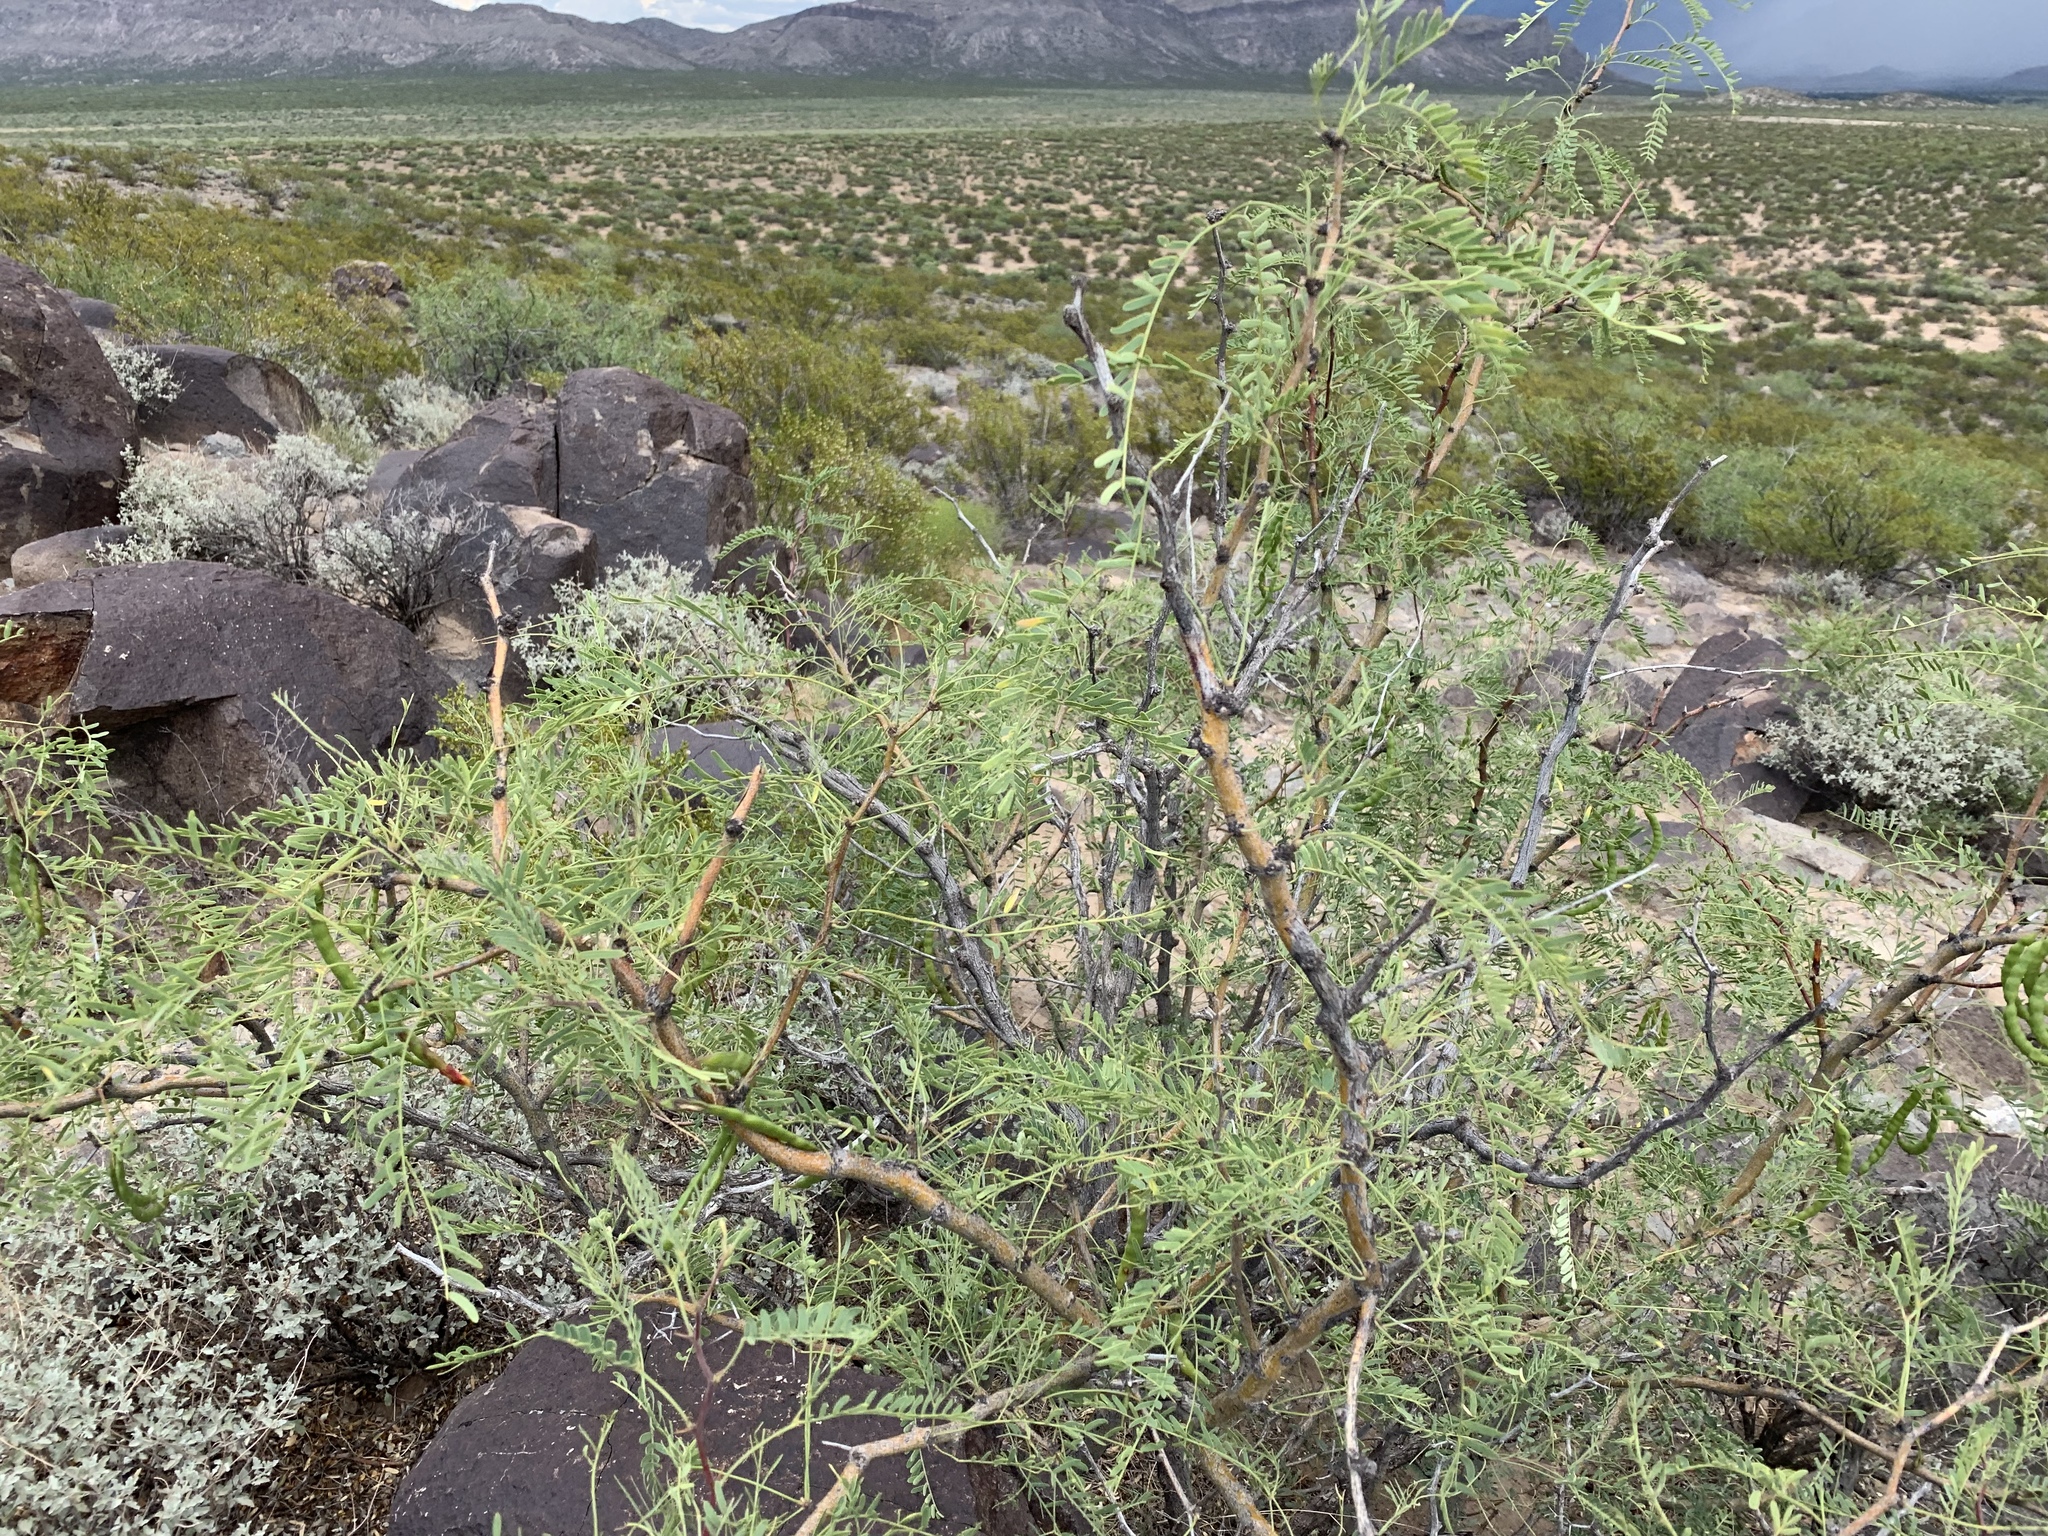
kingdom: Plantae
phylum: Tracheophyta
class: Magnoliopsida
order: Fabales
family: Fabaceae
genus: Prosopis
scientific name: Prosopis glandulosa
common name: Honey mesquite
